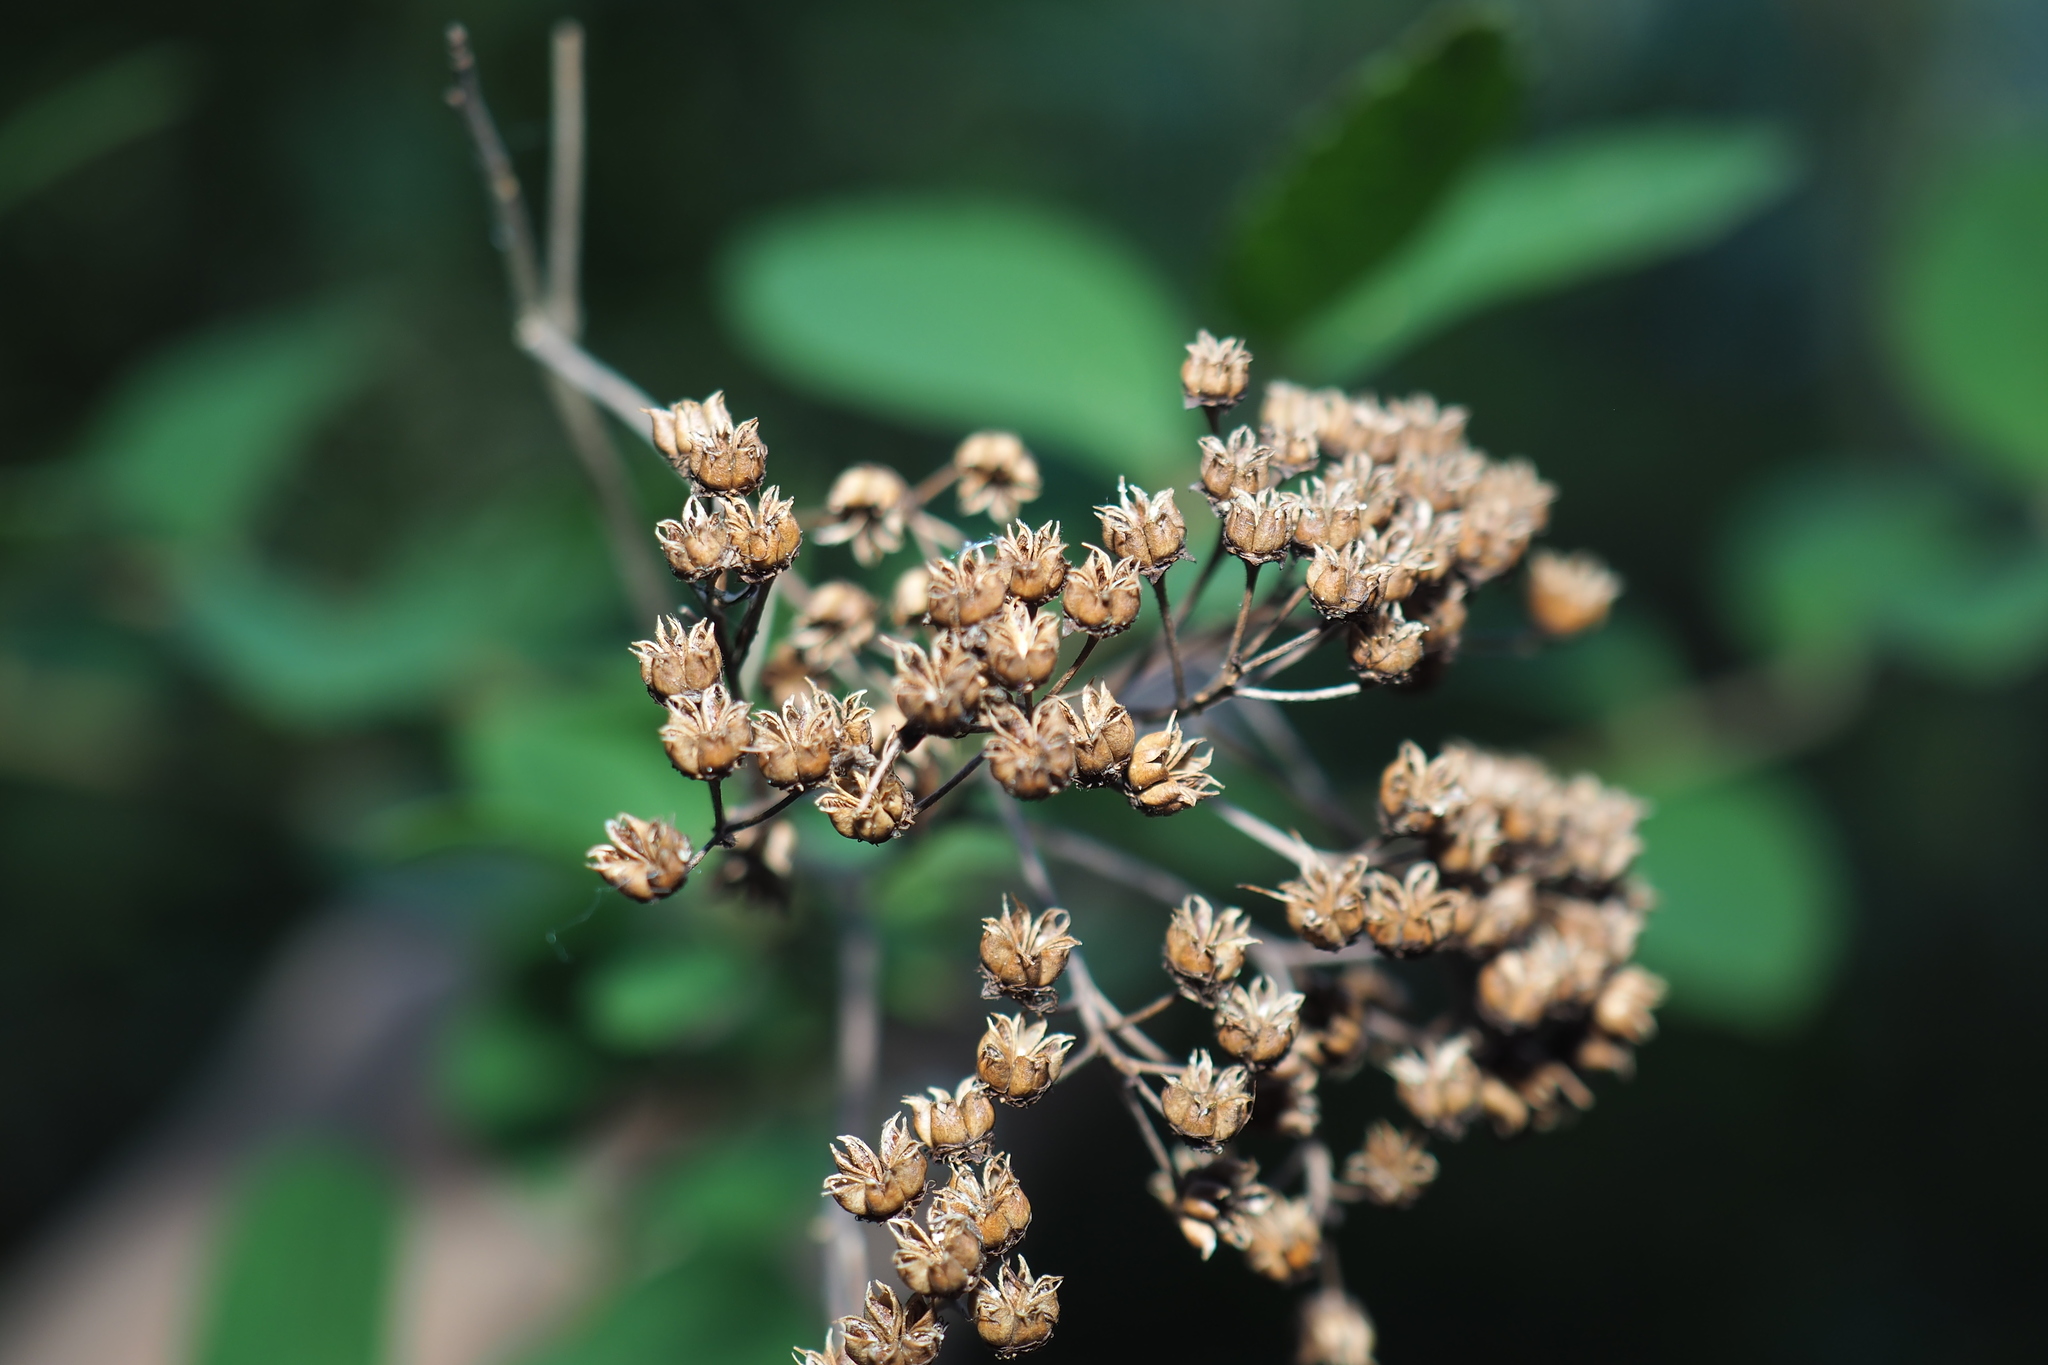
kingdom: Plantae
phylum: Tracheophyta
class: Magnoliopsida
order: Rosales
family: Rosaceae
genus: Spiraea
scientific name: Spiraea japonica
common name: Japanese spiraea
